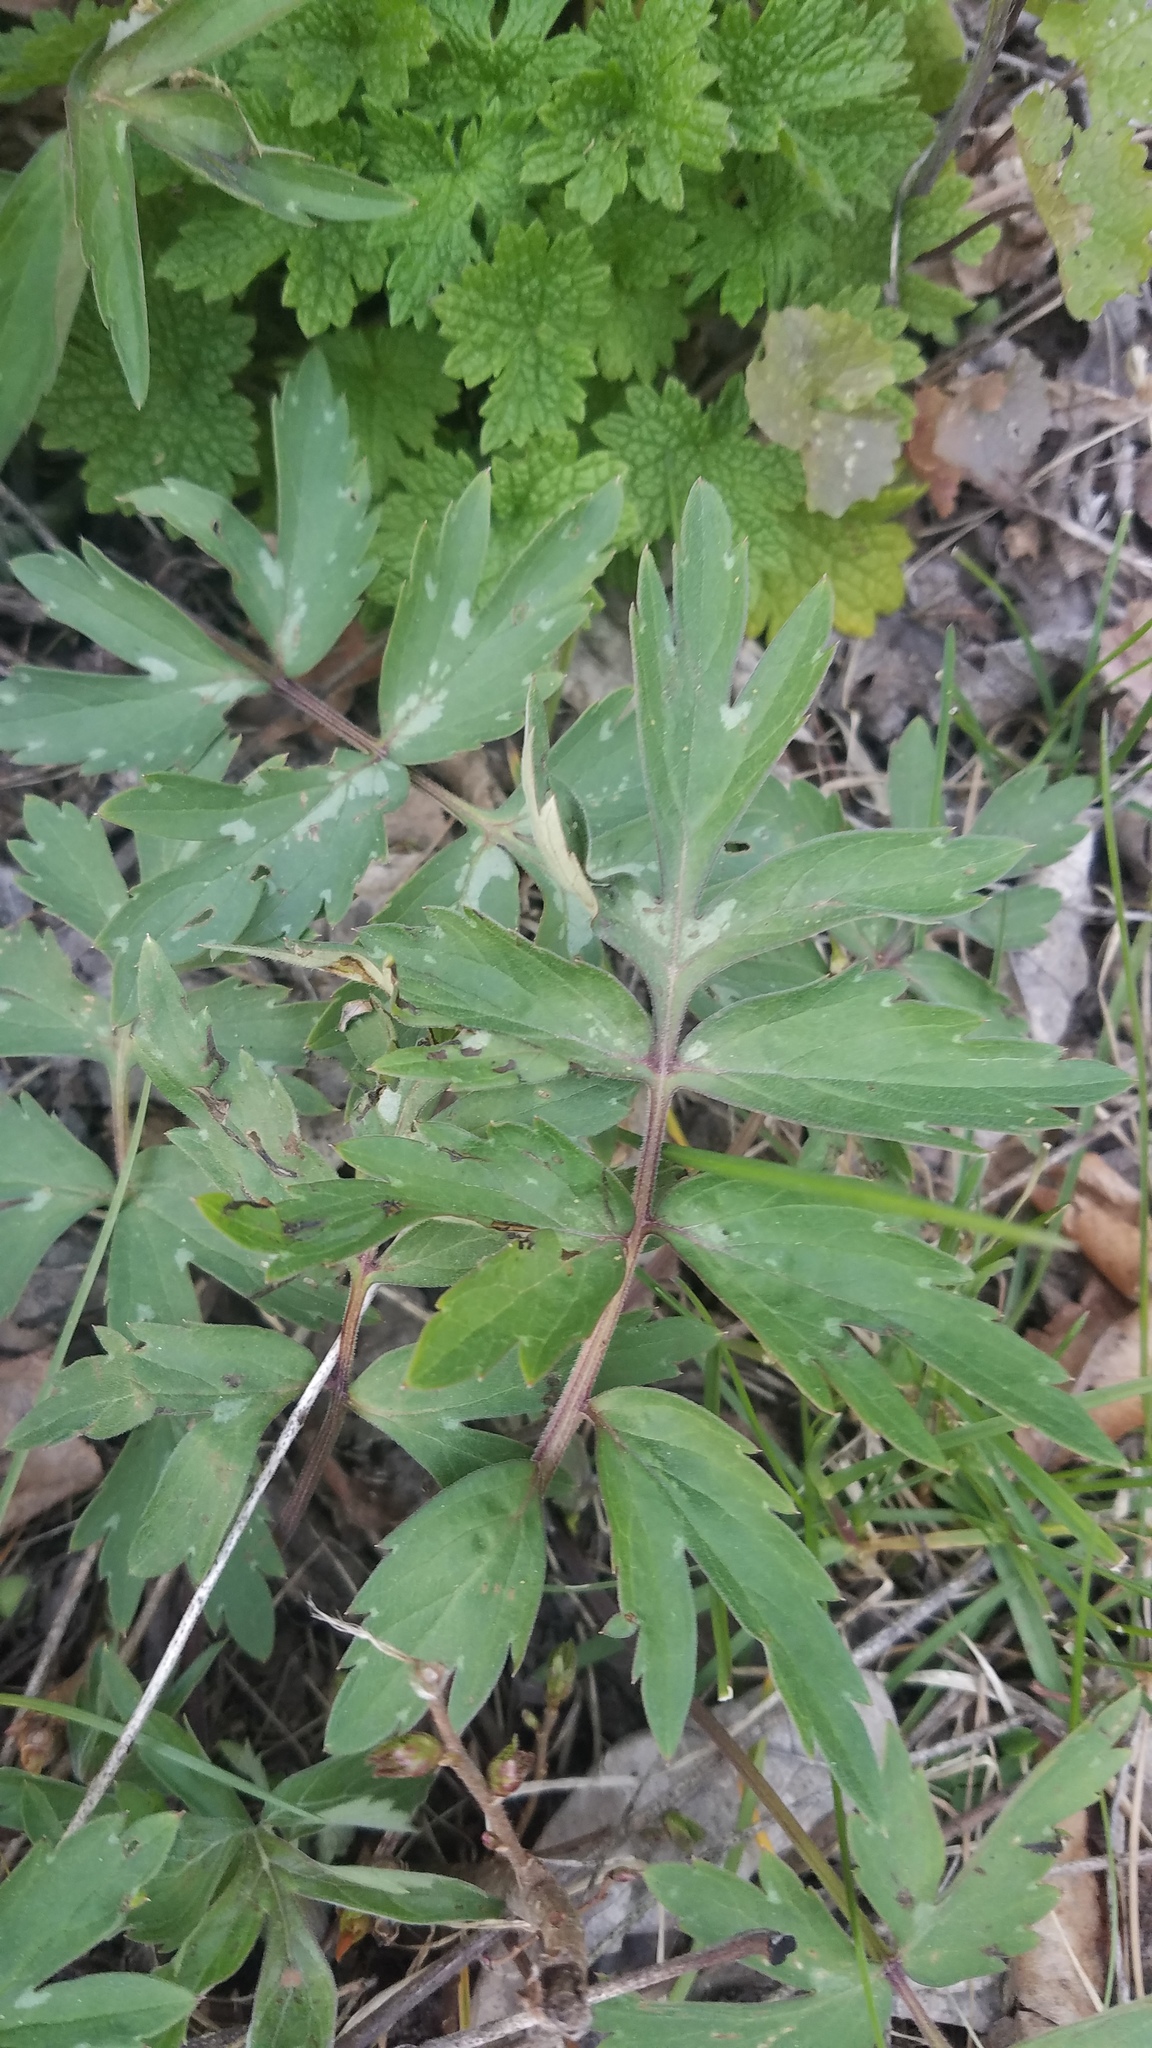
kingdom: Plantae
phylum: Tracheophyta
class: Magnoliopsida
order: Boraginales
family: Hydrophyllaceae
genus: Hydrophyllum
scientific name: Hydrophyllum virginianum
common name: Virginia waterleaf
